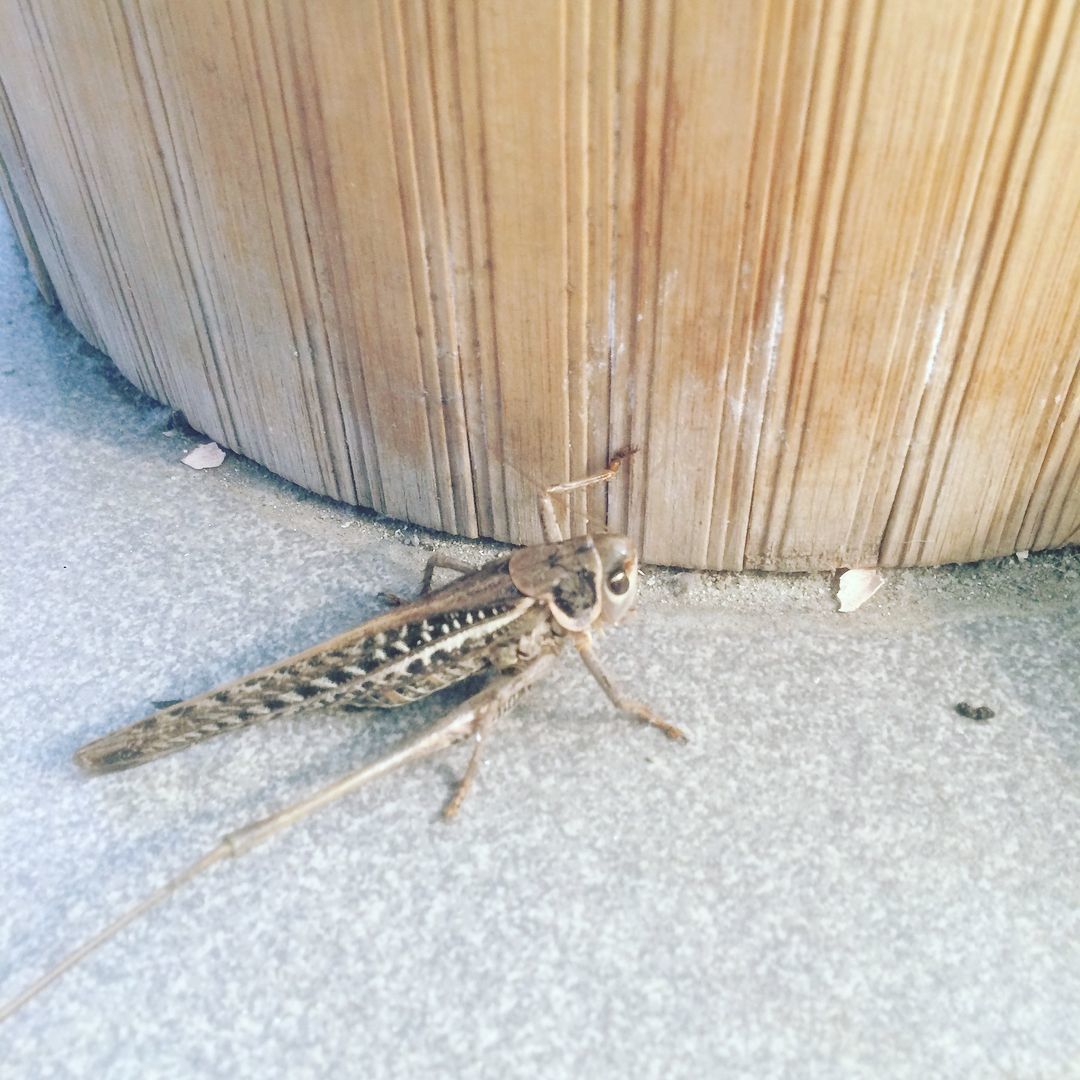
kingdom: Animalia
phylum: Arthropoda
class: Insecta
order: Orthoptera
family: Tettigoniidae
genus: Decticus
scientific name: Decticus albifrons
